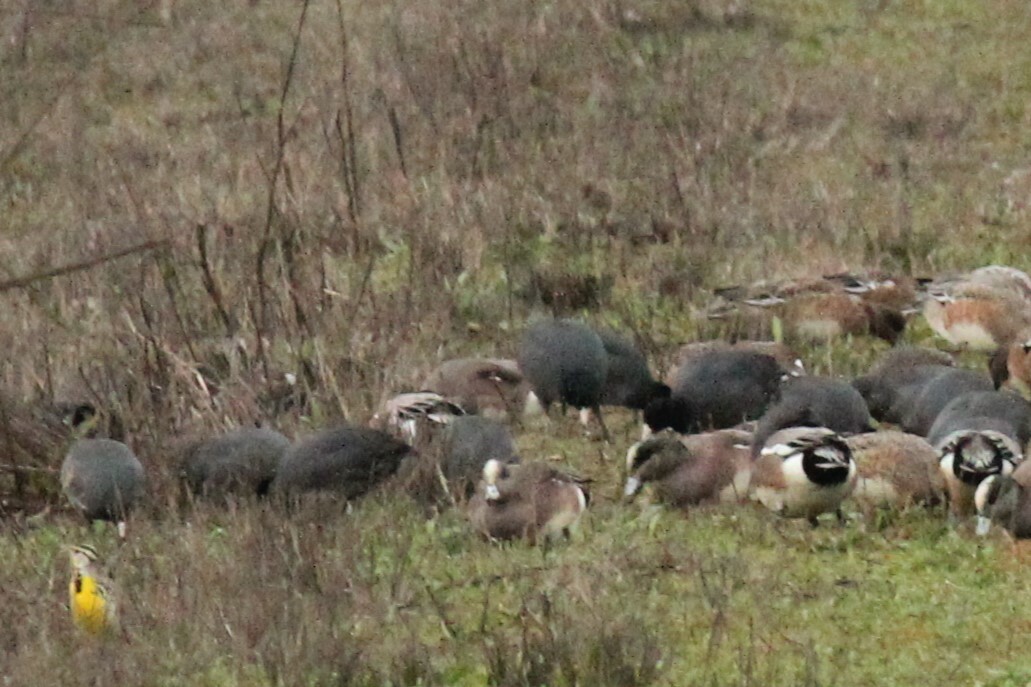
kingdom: Animalia
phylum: Chordata
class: Aves
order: Gruiformes
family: Rallidae
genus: Fulica
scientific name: Fulica americana
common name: American coot
